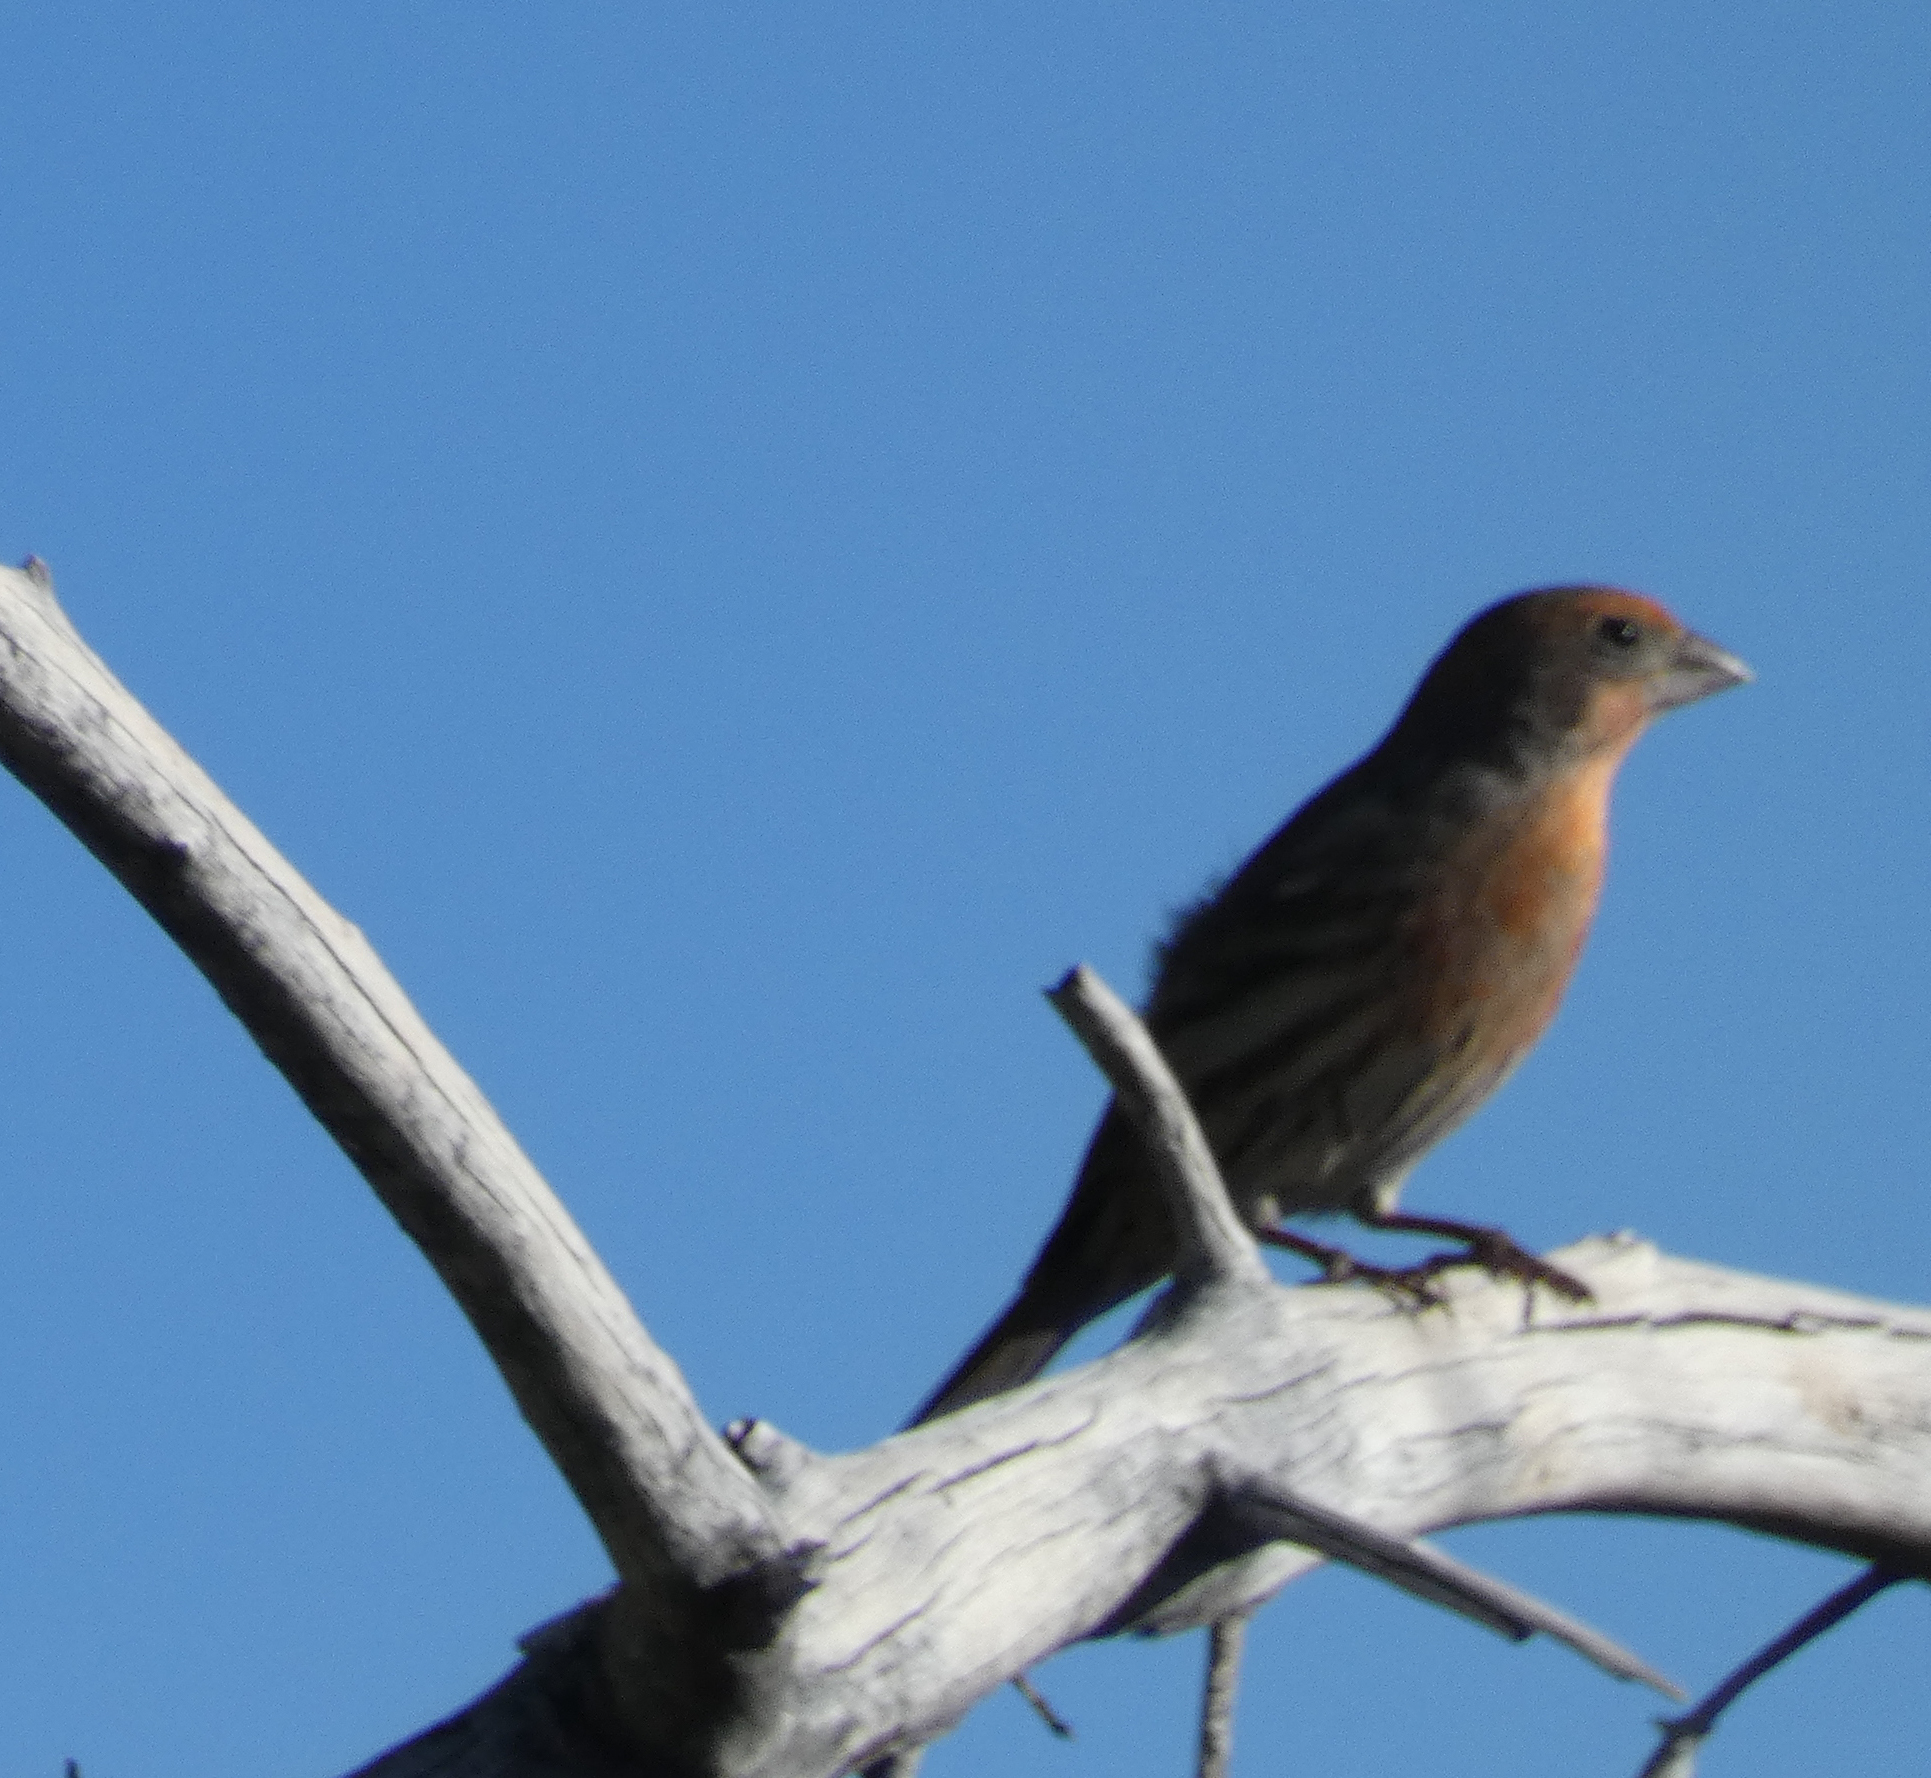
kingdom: Animalia
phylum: Chordata
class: Aves
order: Passeriformes
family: Fringillidae
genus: Haemorhous
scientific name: Haemorhous mexicanus
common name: House finch
